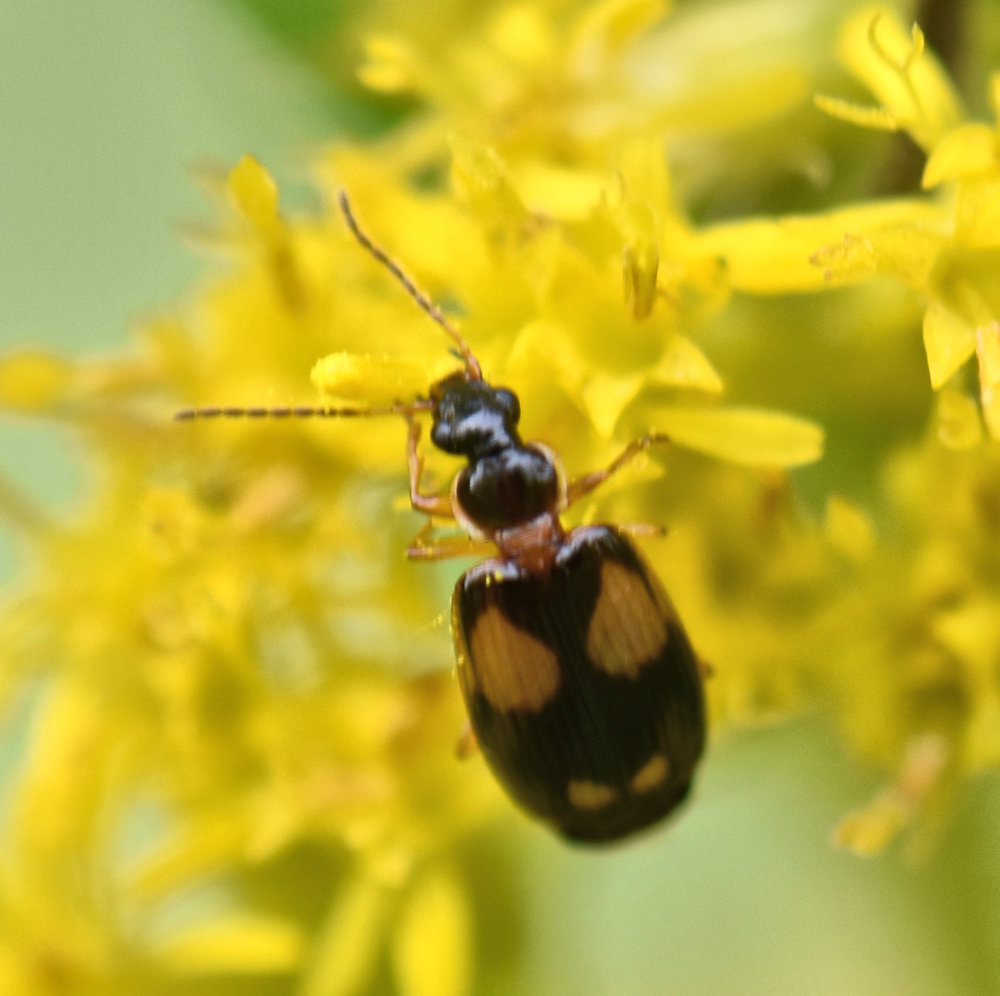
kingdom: Animalia
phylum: Arthropoda
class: Insecta
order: Coleoptera
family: Carabidae
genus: Lebia
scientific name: Lebia ornata
